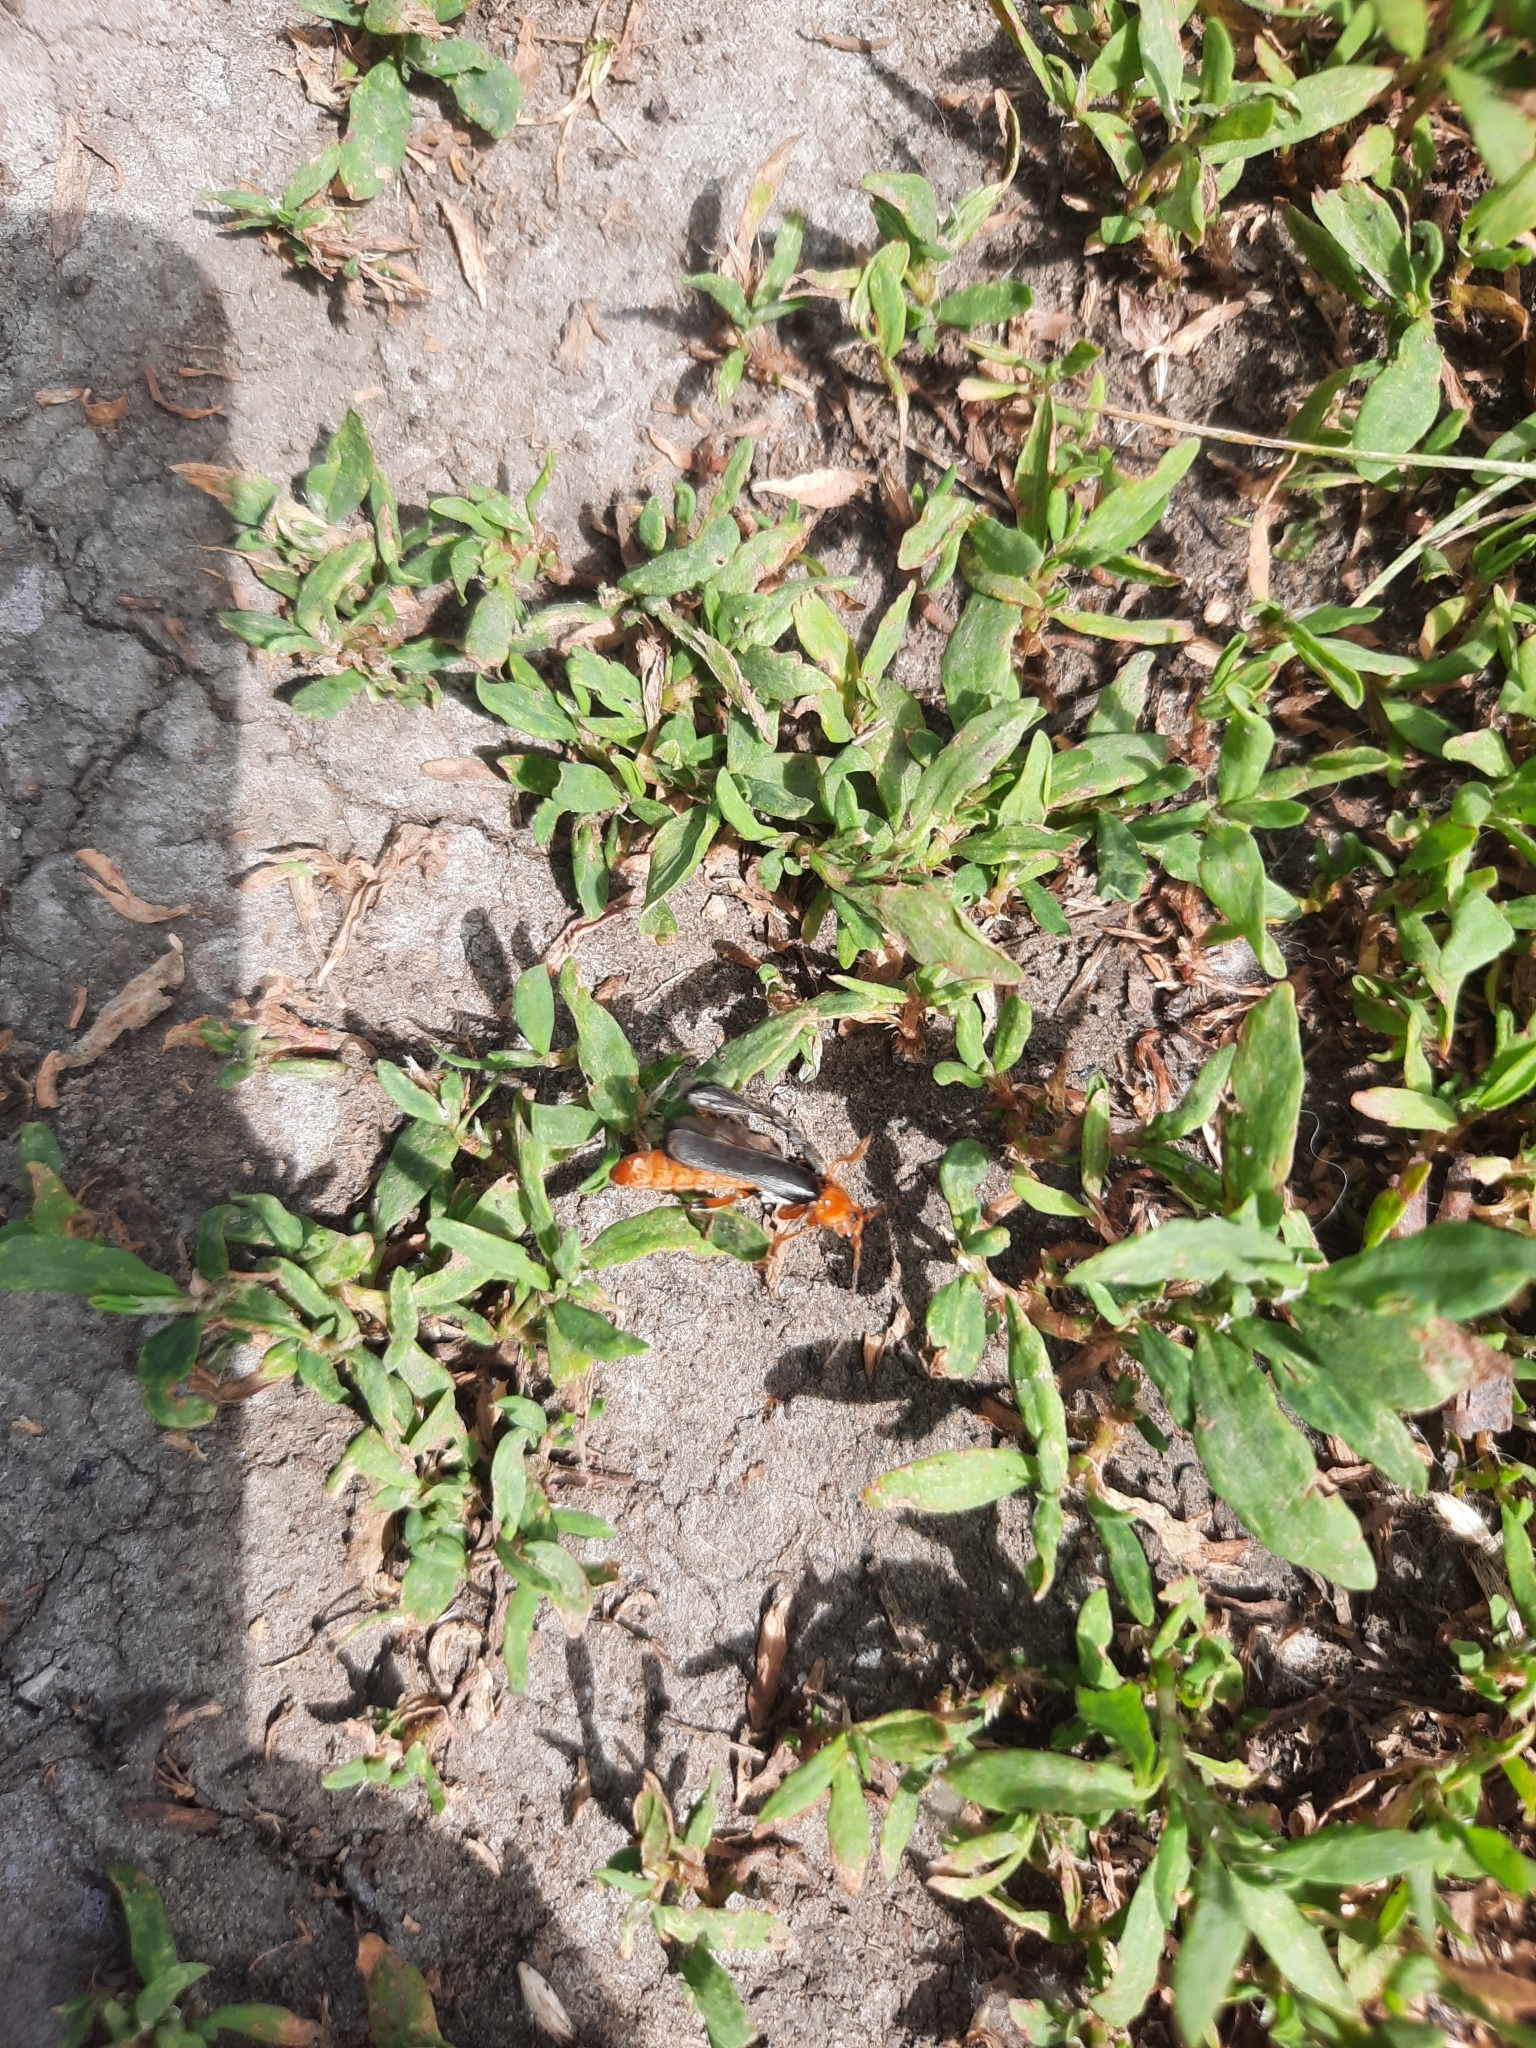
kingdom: Animalia
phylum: Arthropoda
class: Insecta
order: Coleoptera
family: Cantharidae
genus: Cantharis
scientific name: Cantharis livida
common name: Livid soldier beetle
